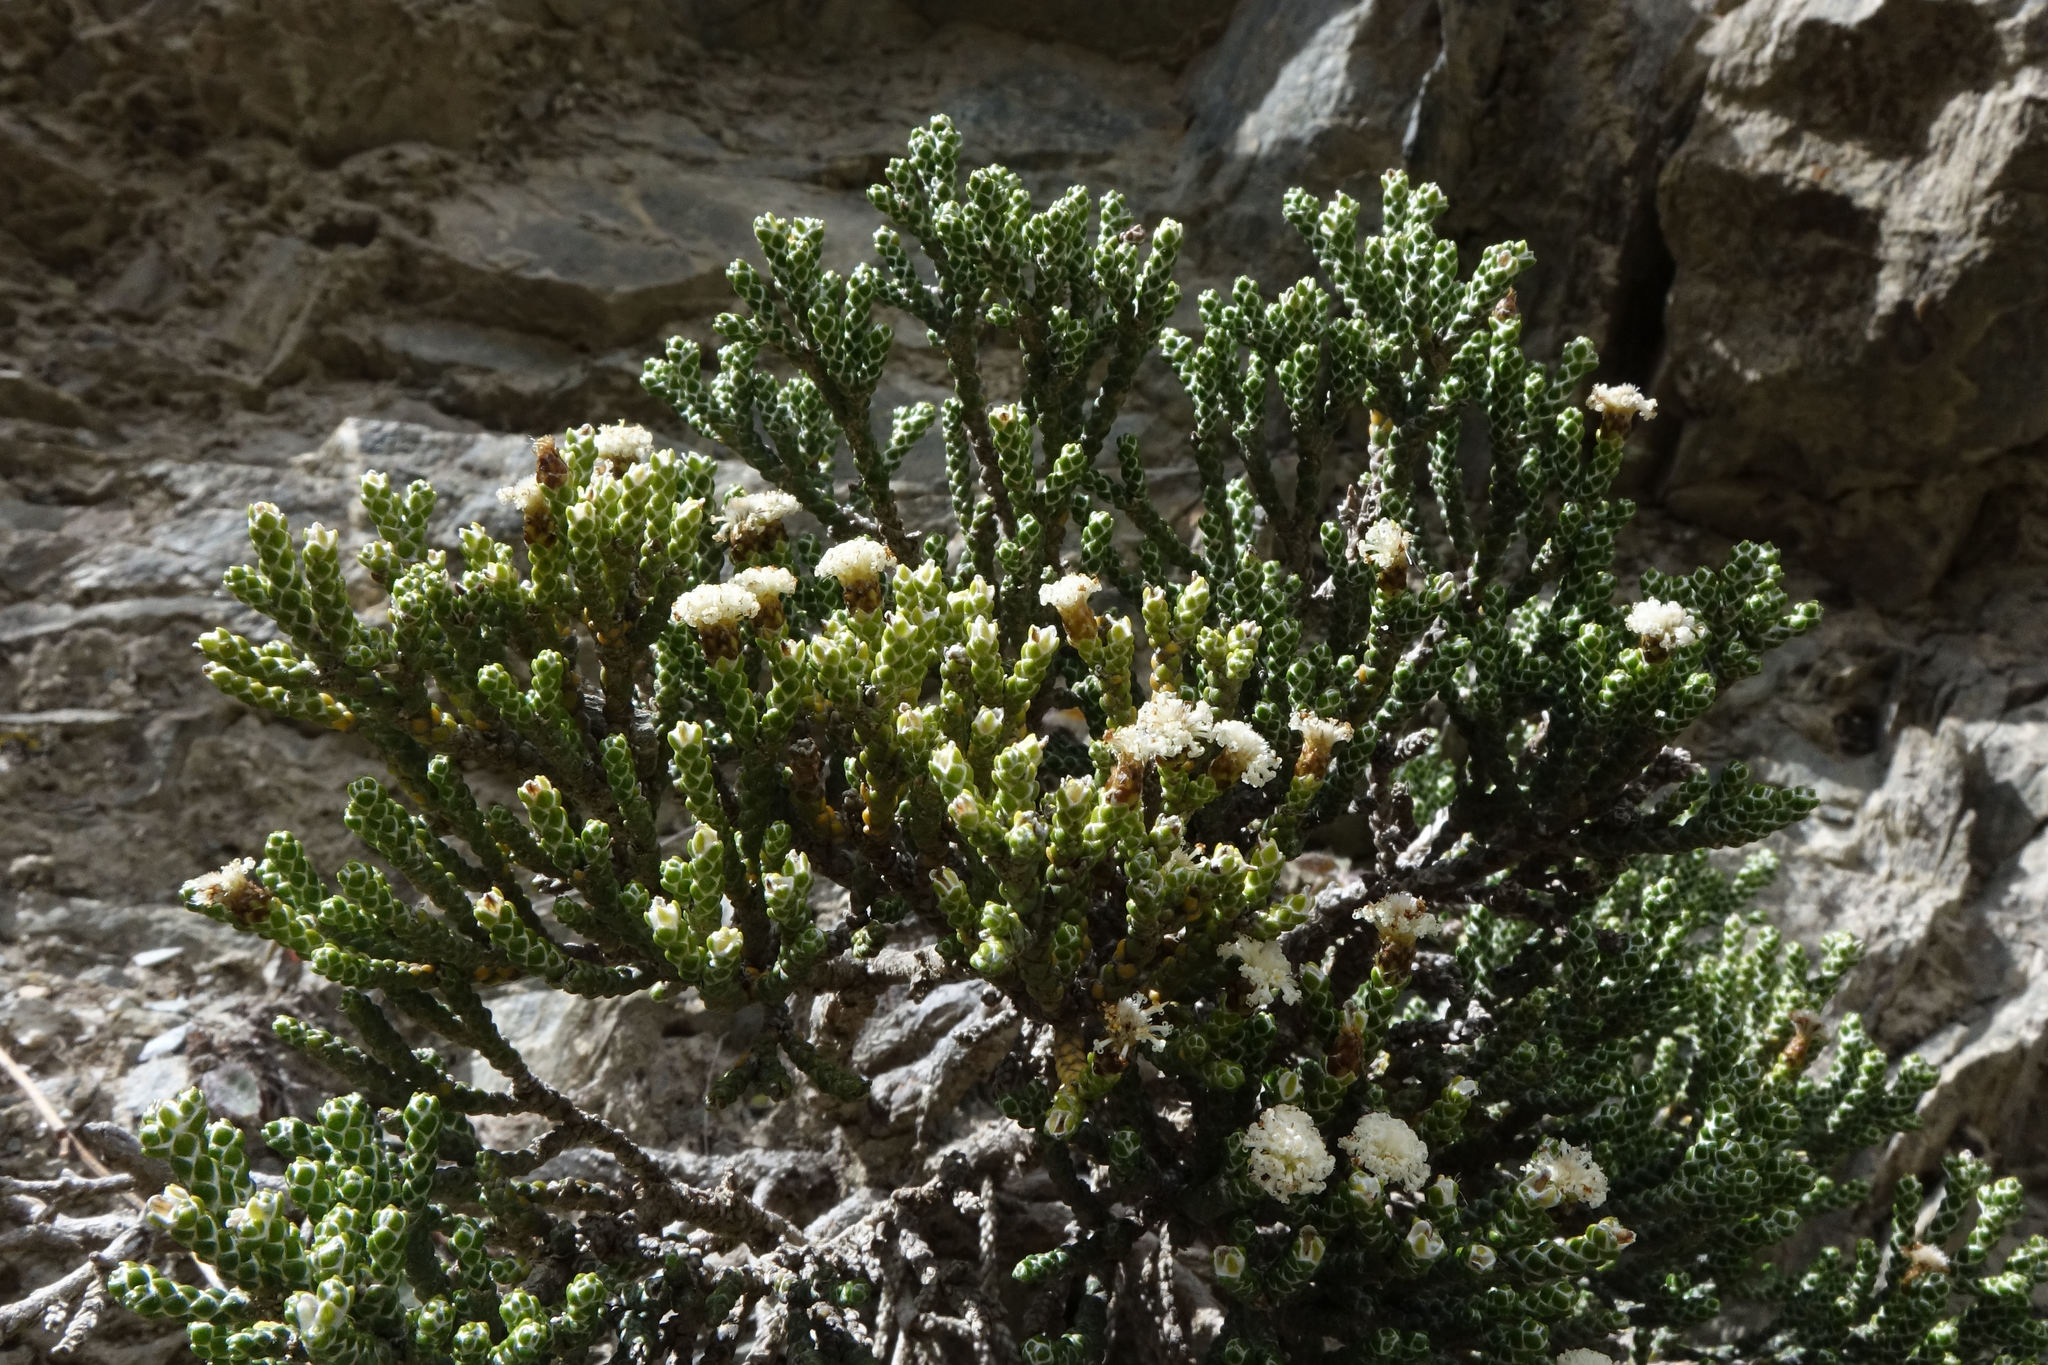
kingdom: Plantae
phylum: Tracheophyta
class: Magnoliopsida
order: Asterales
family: Asteraceae
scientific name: Asteraceae
